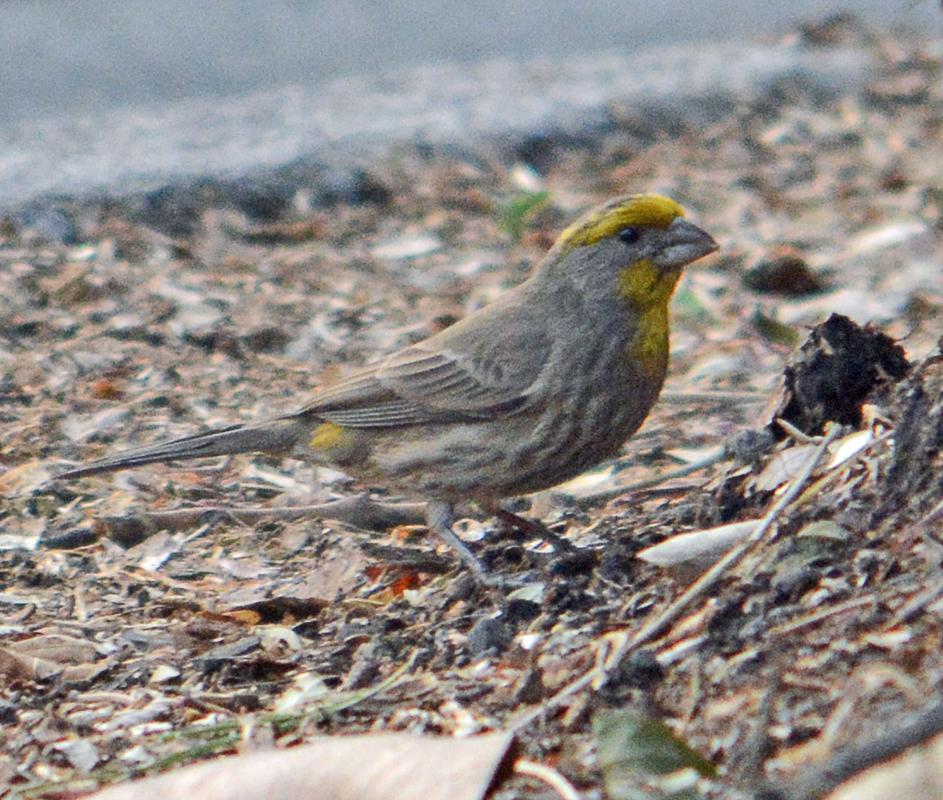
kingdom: Animalia
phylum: Chordata
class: Aves
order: Passeriformes
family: Fringillidae
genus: Haemorhous
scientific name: Haemorhous mexicanus
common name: House finch
